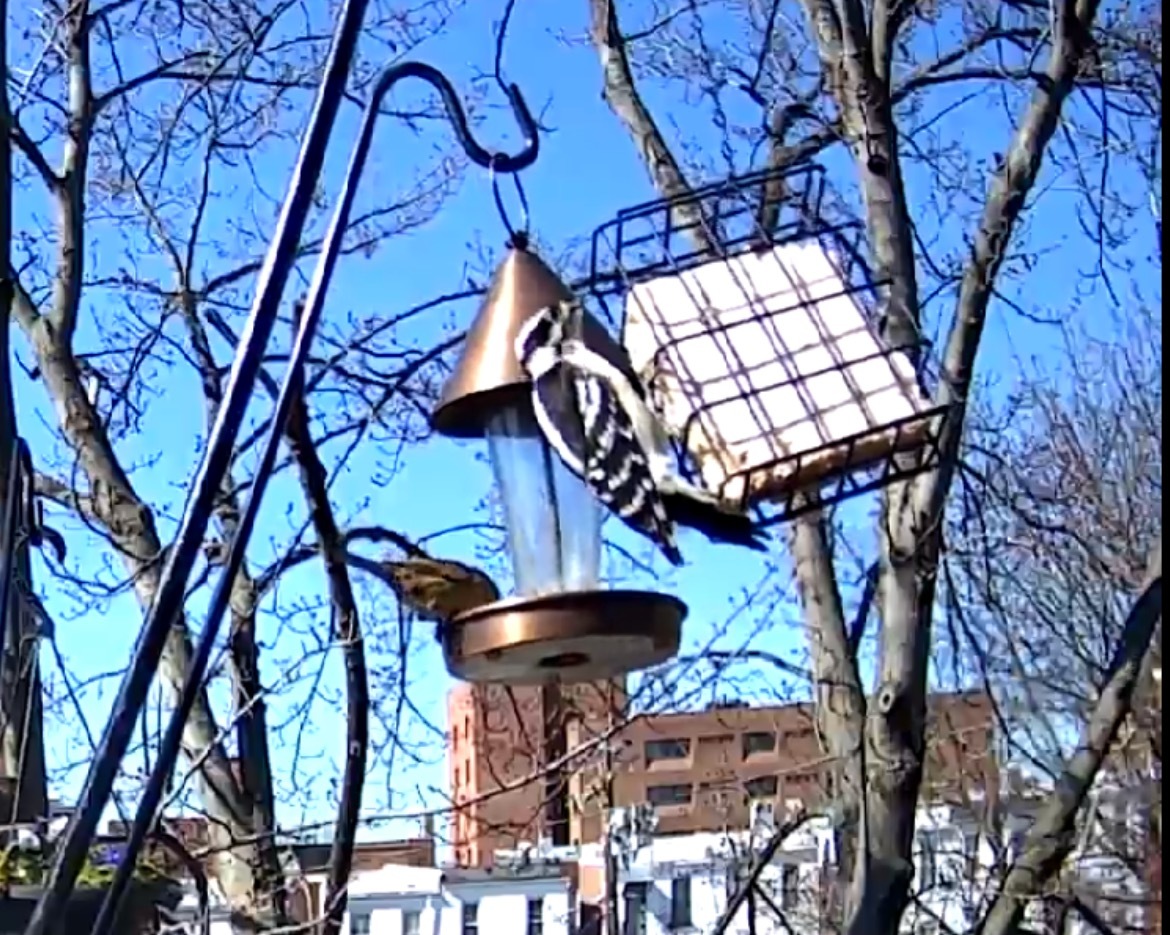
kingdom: Animalia
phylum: Chordata
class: Aves
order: Piciformes
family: Picidae
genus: Dryobates
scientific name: Dryobates pubescens
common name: Downy woodpecker
